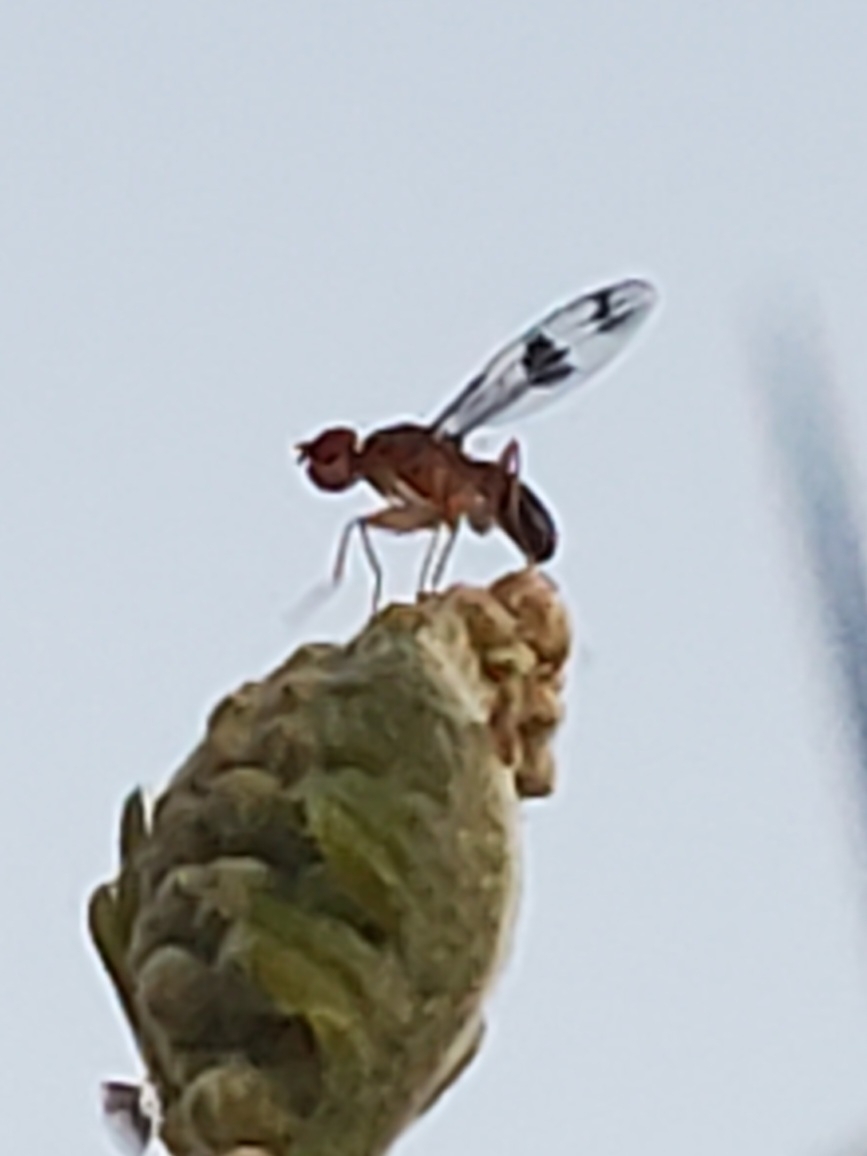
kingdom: Animalia
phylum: Arthropoda
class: Insecta
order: Diptera
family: Drosophilidae
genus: Chymomyza
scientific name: Chymomyza amoena
